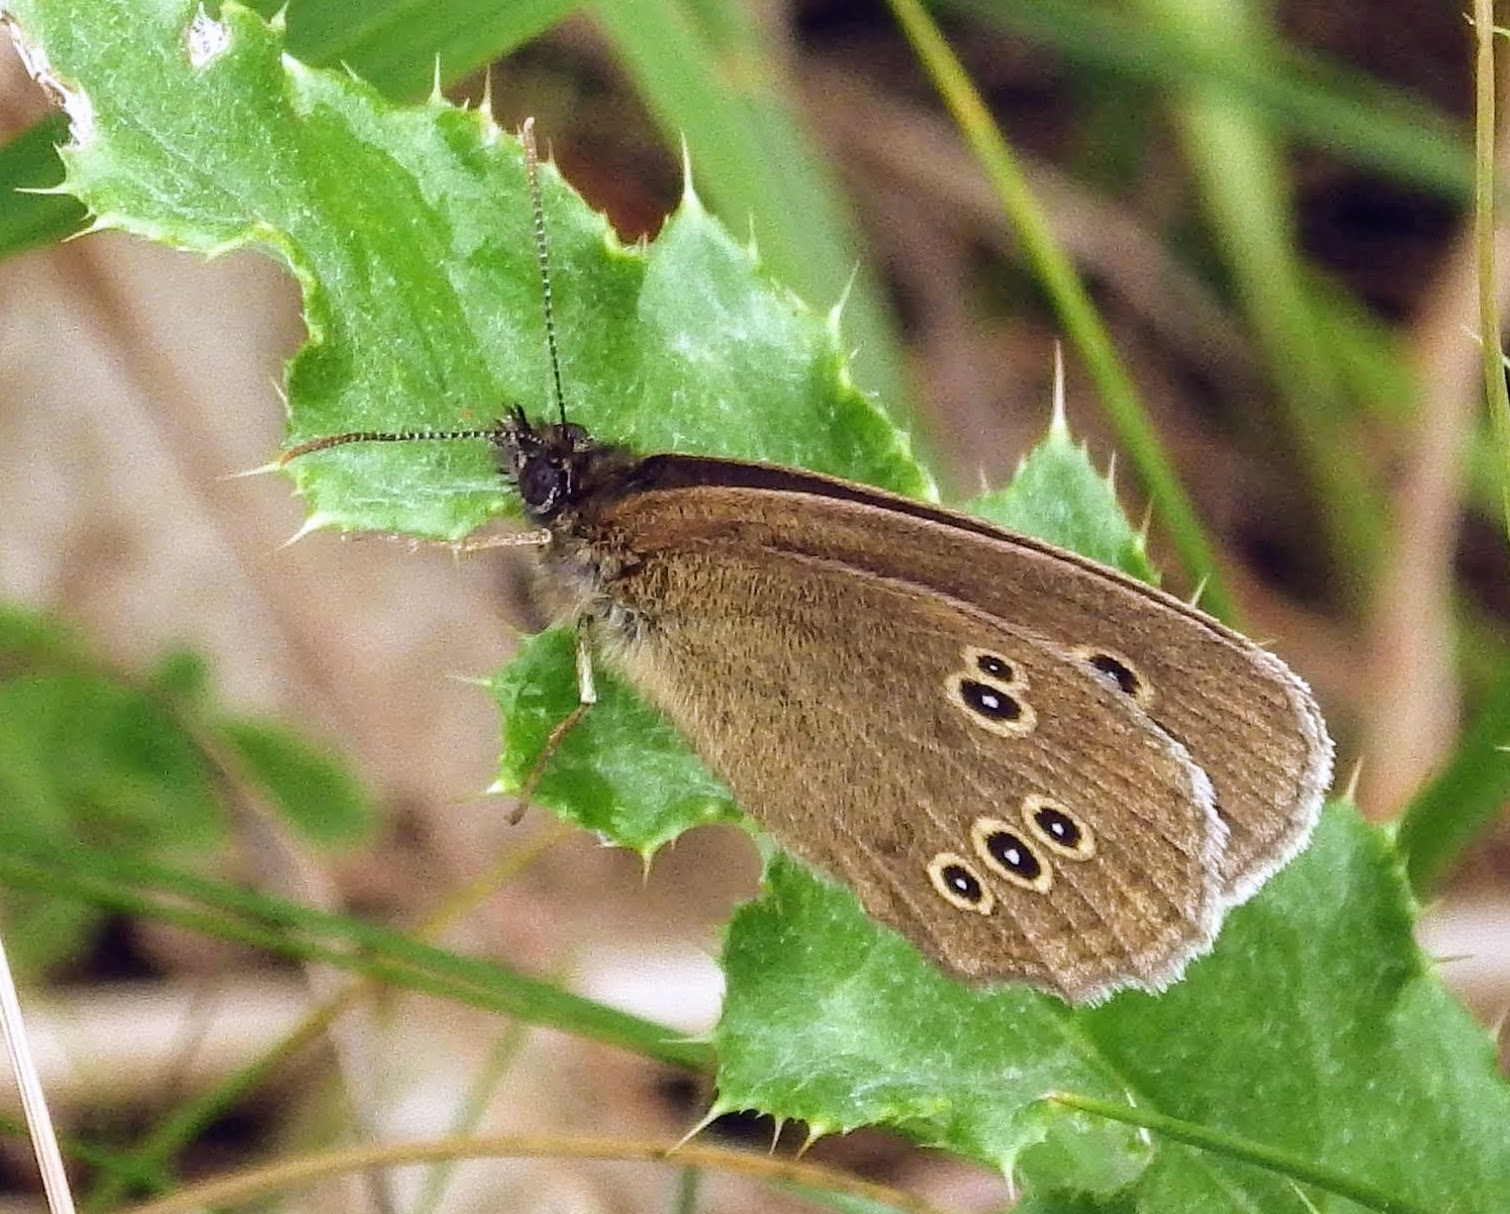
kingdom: Animalia
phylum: Arthropoda
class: Insecta
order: Lepidoptera
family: Nymphalidae
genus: Aphantopus
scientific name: Aphantopus hyperantus
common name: Ringlet
